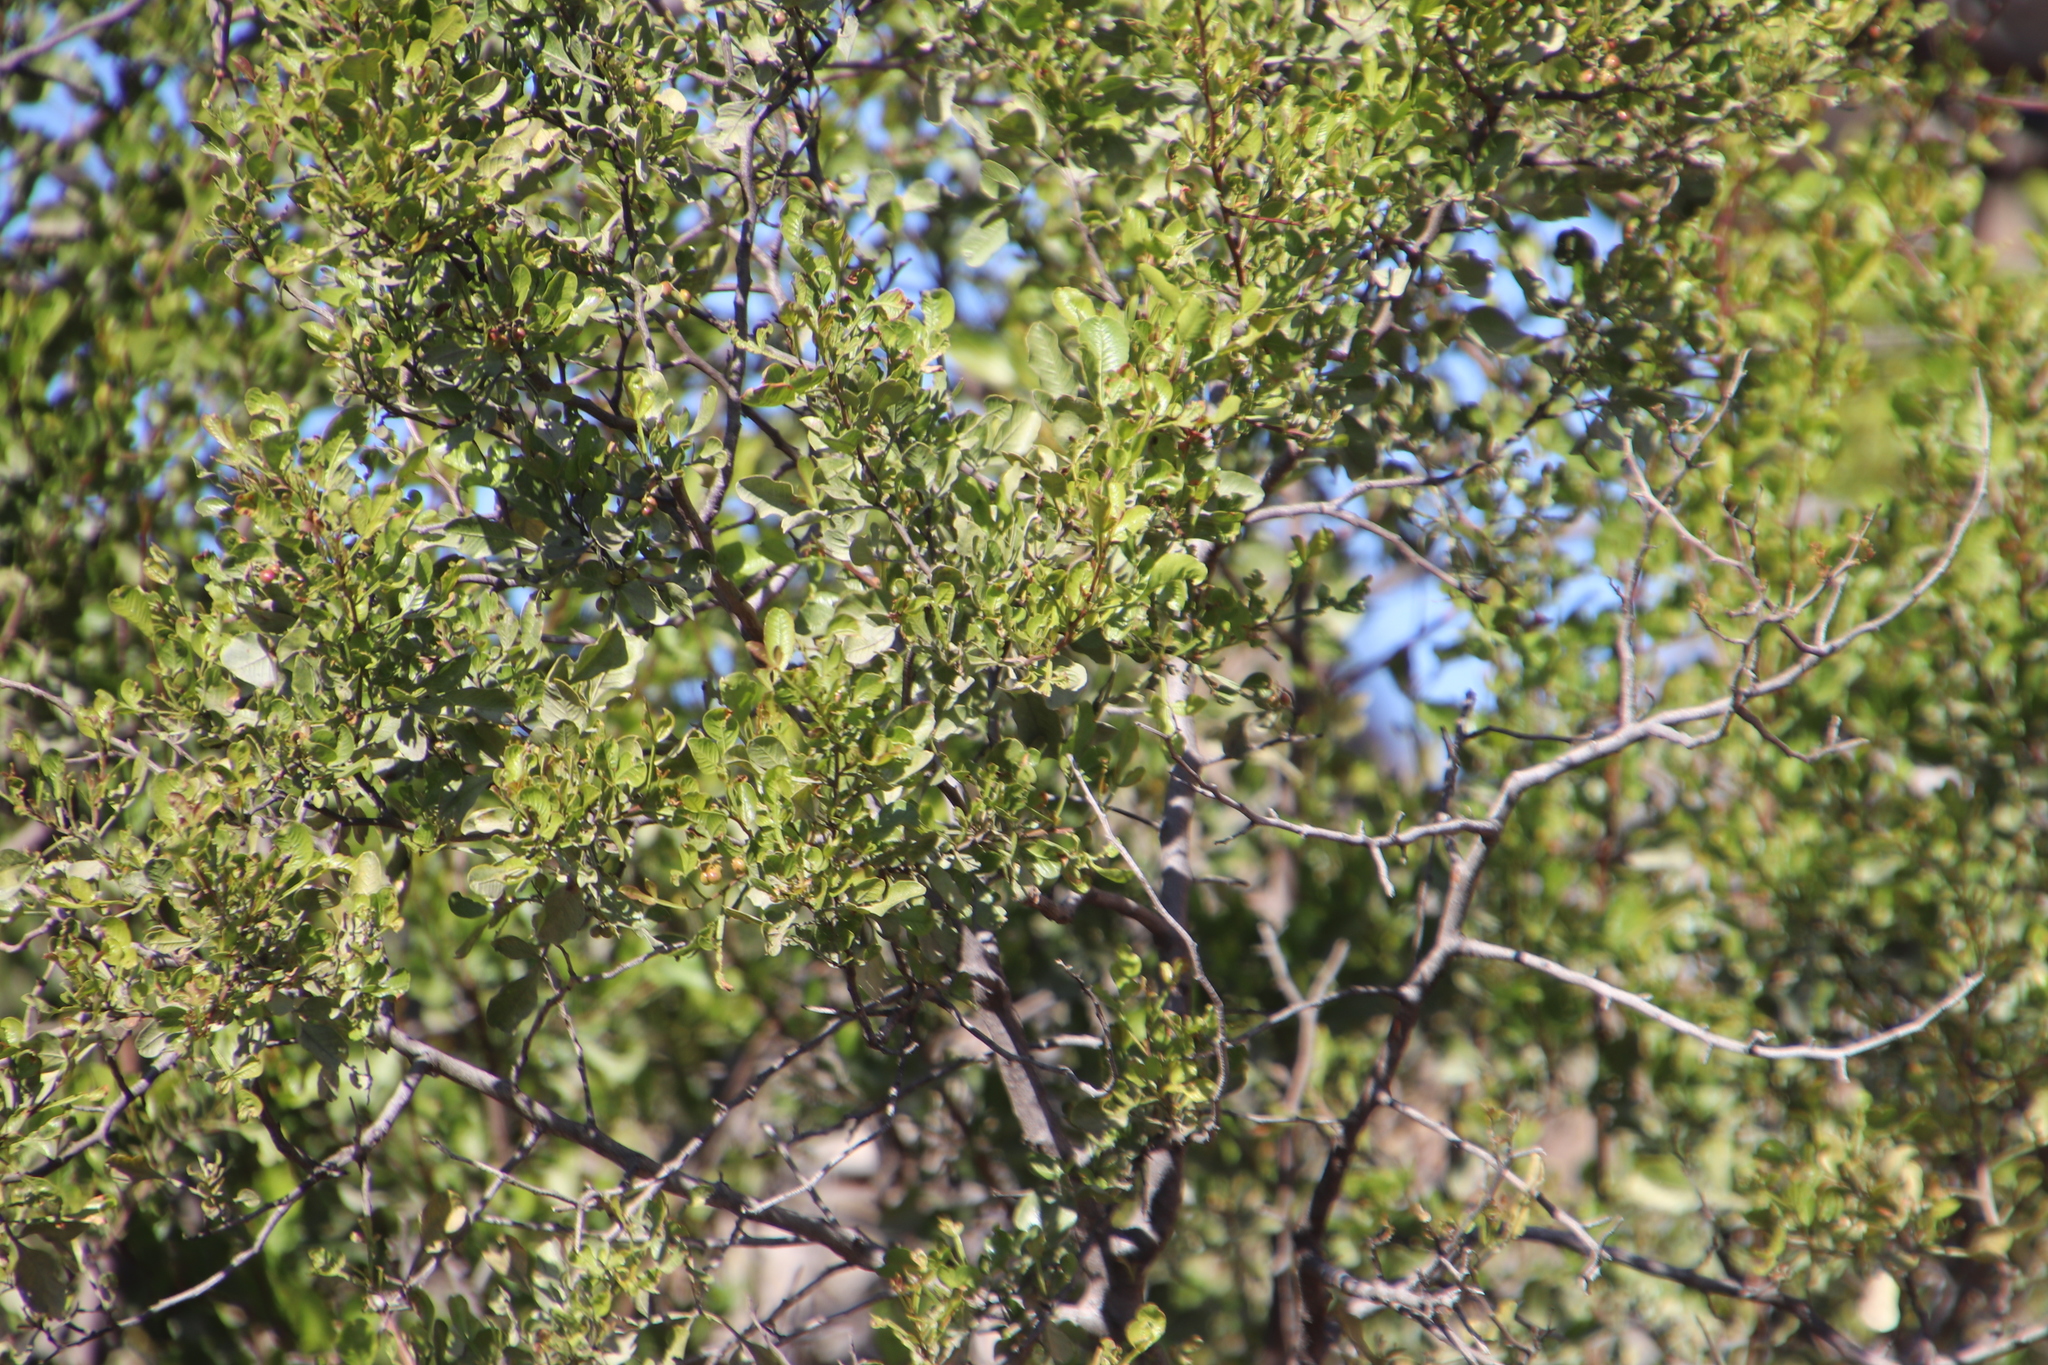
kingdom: Plantae
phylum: Tracheophyta
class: Magnoliopsida
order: Sapindales
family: Anacardiaceae
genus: Searsia
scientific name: Searsia undulata
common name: Namaqua kunibush
